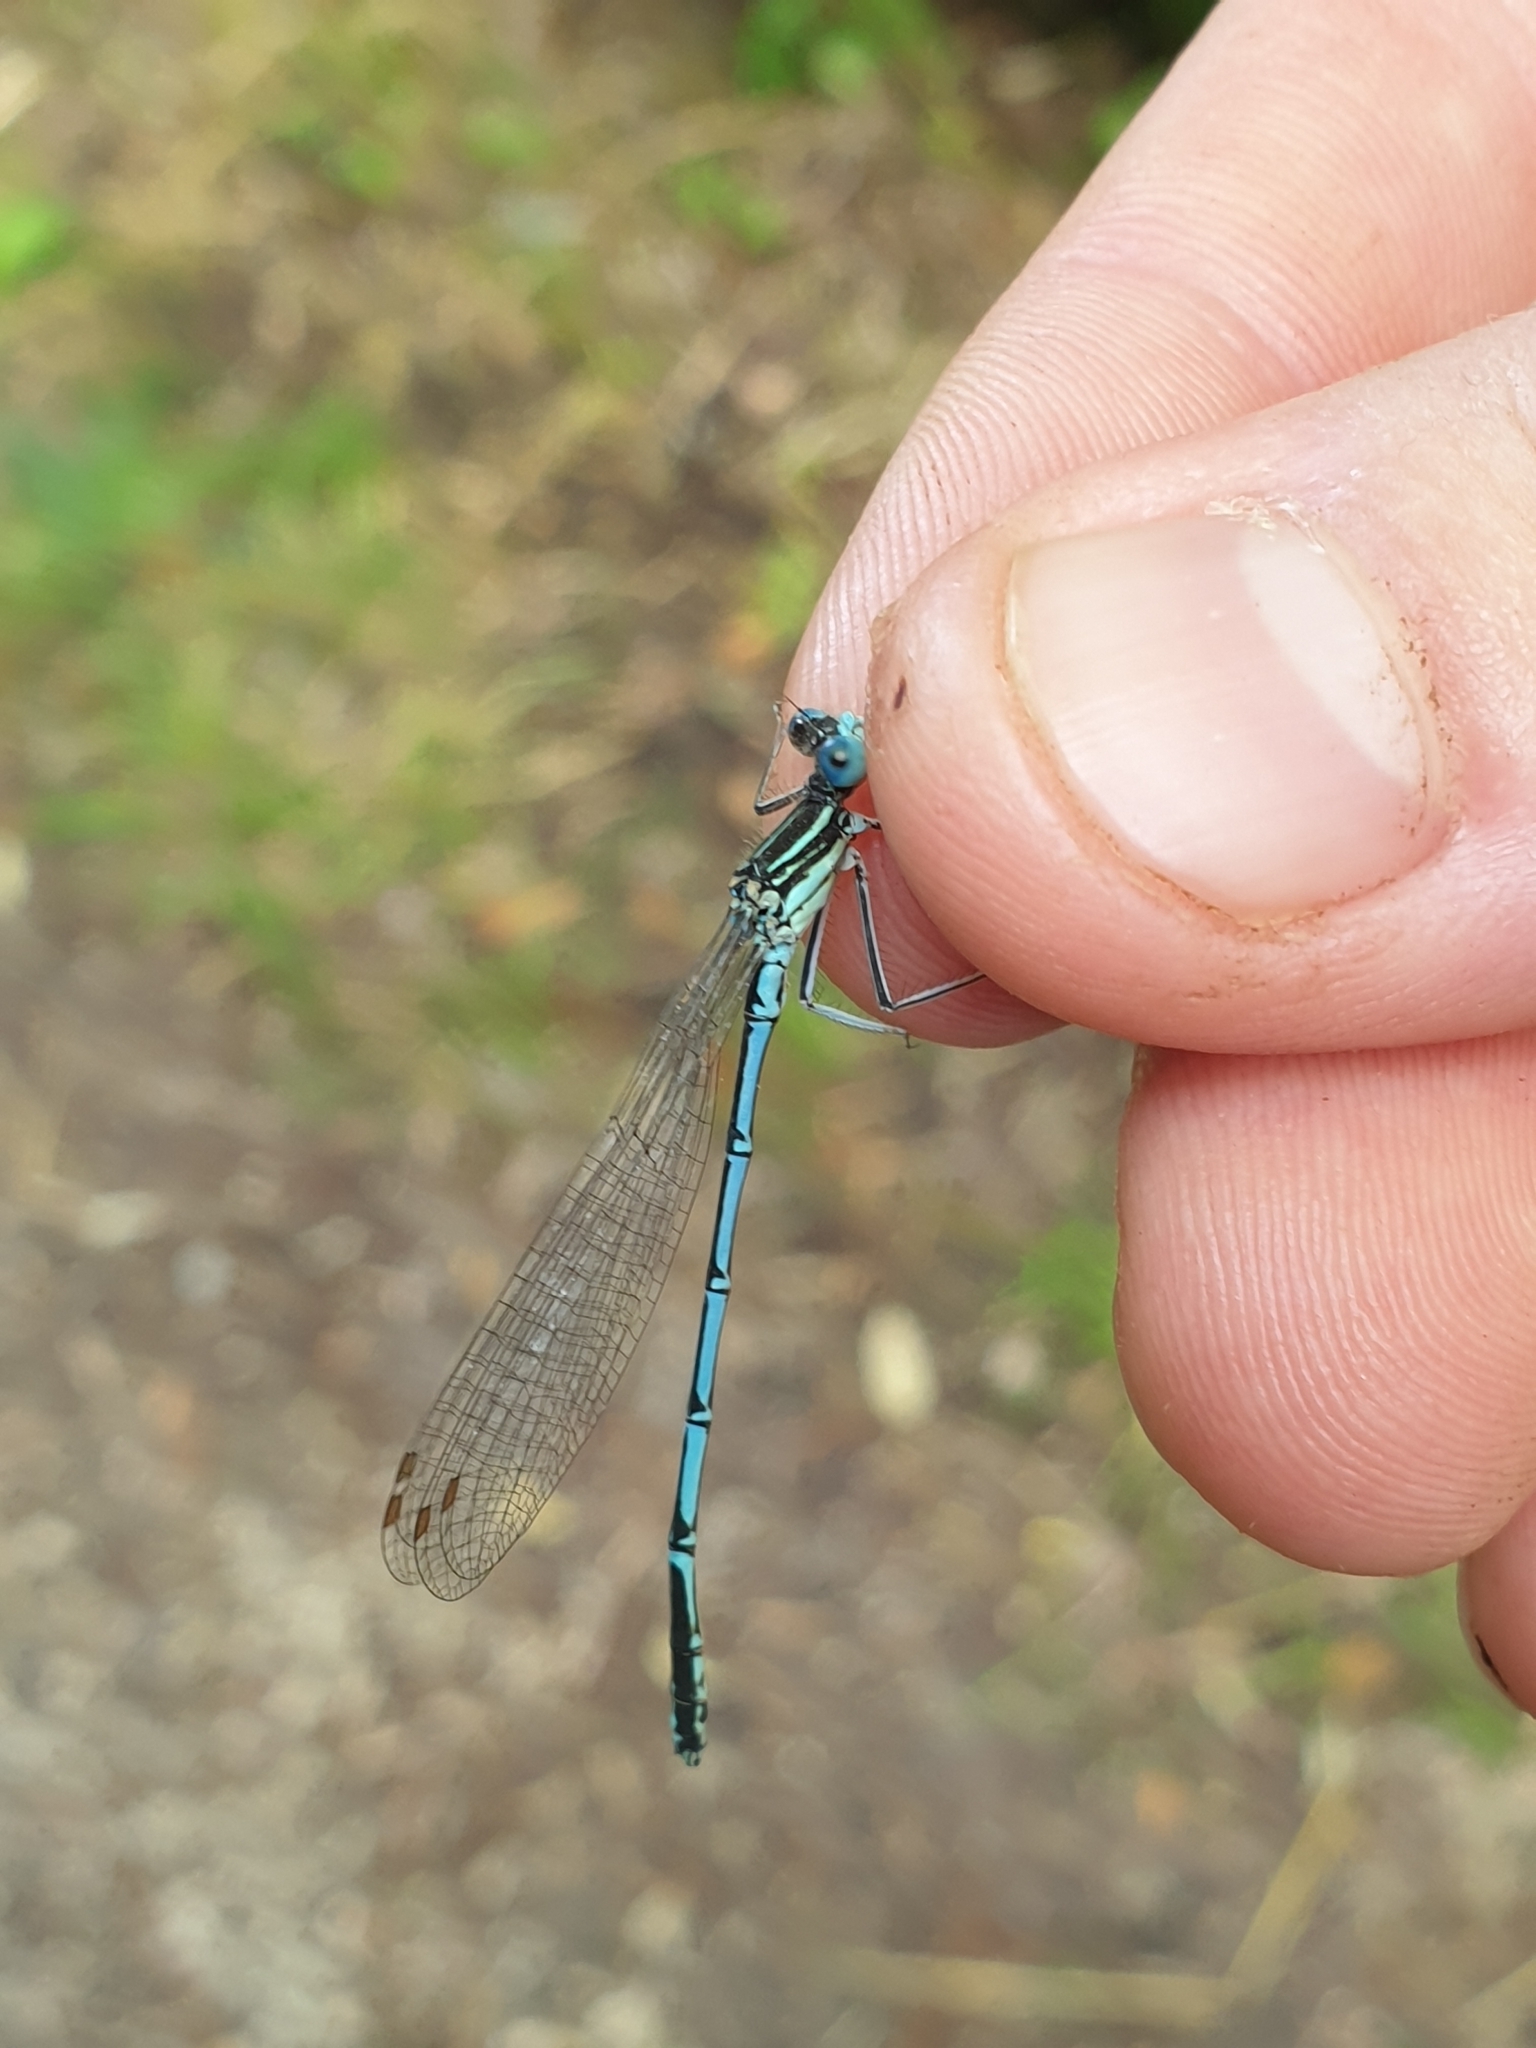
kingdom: Animalia
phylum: Arthropoda
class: Insecta
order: Odonata
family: Platycnemididae
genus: Platycnemis
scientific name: Platycnemis pennipes
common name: White-legged damselfly
